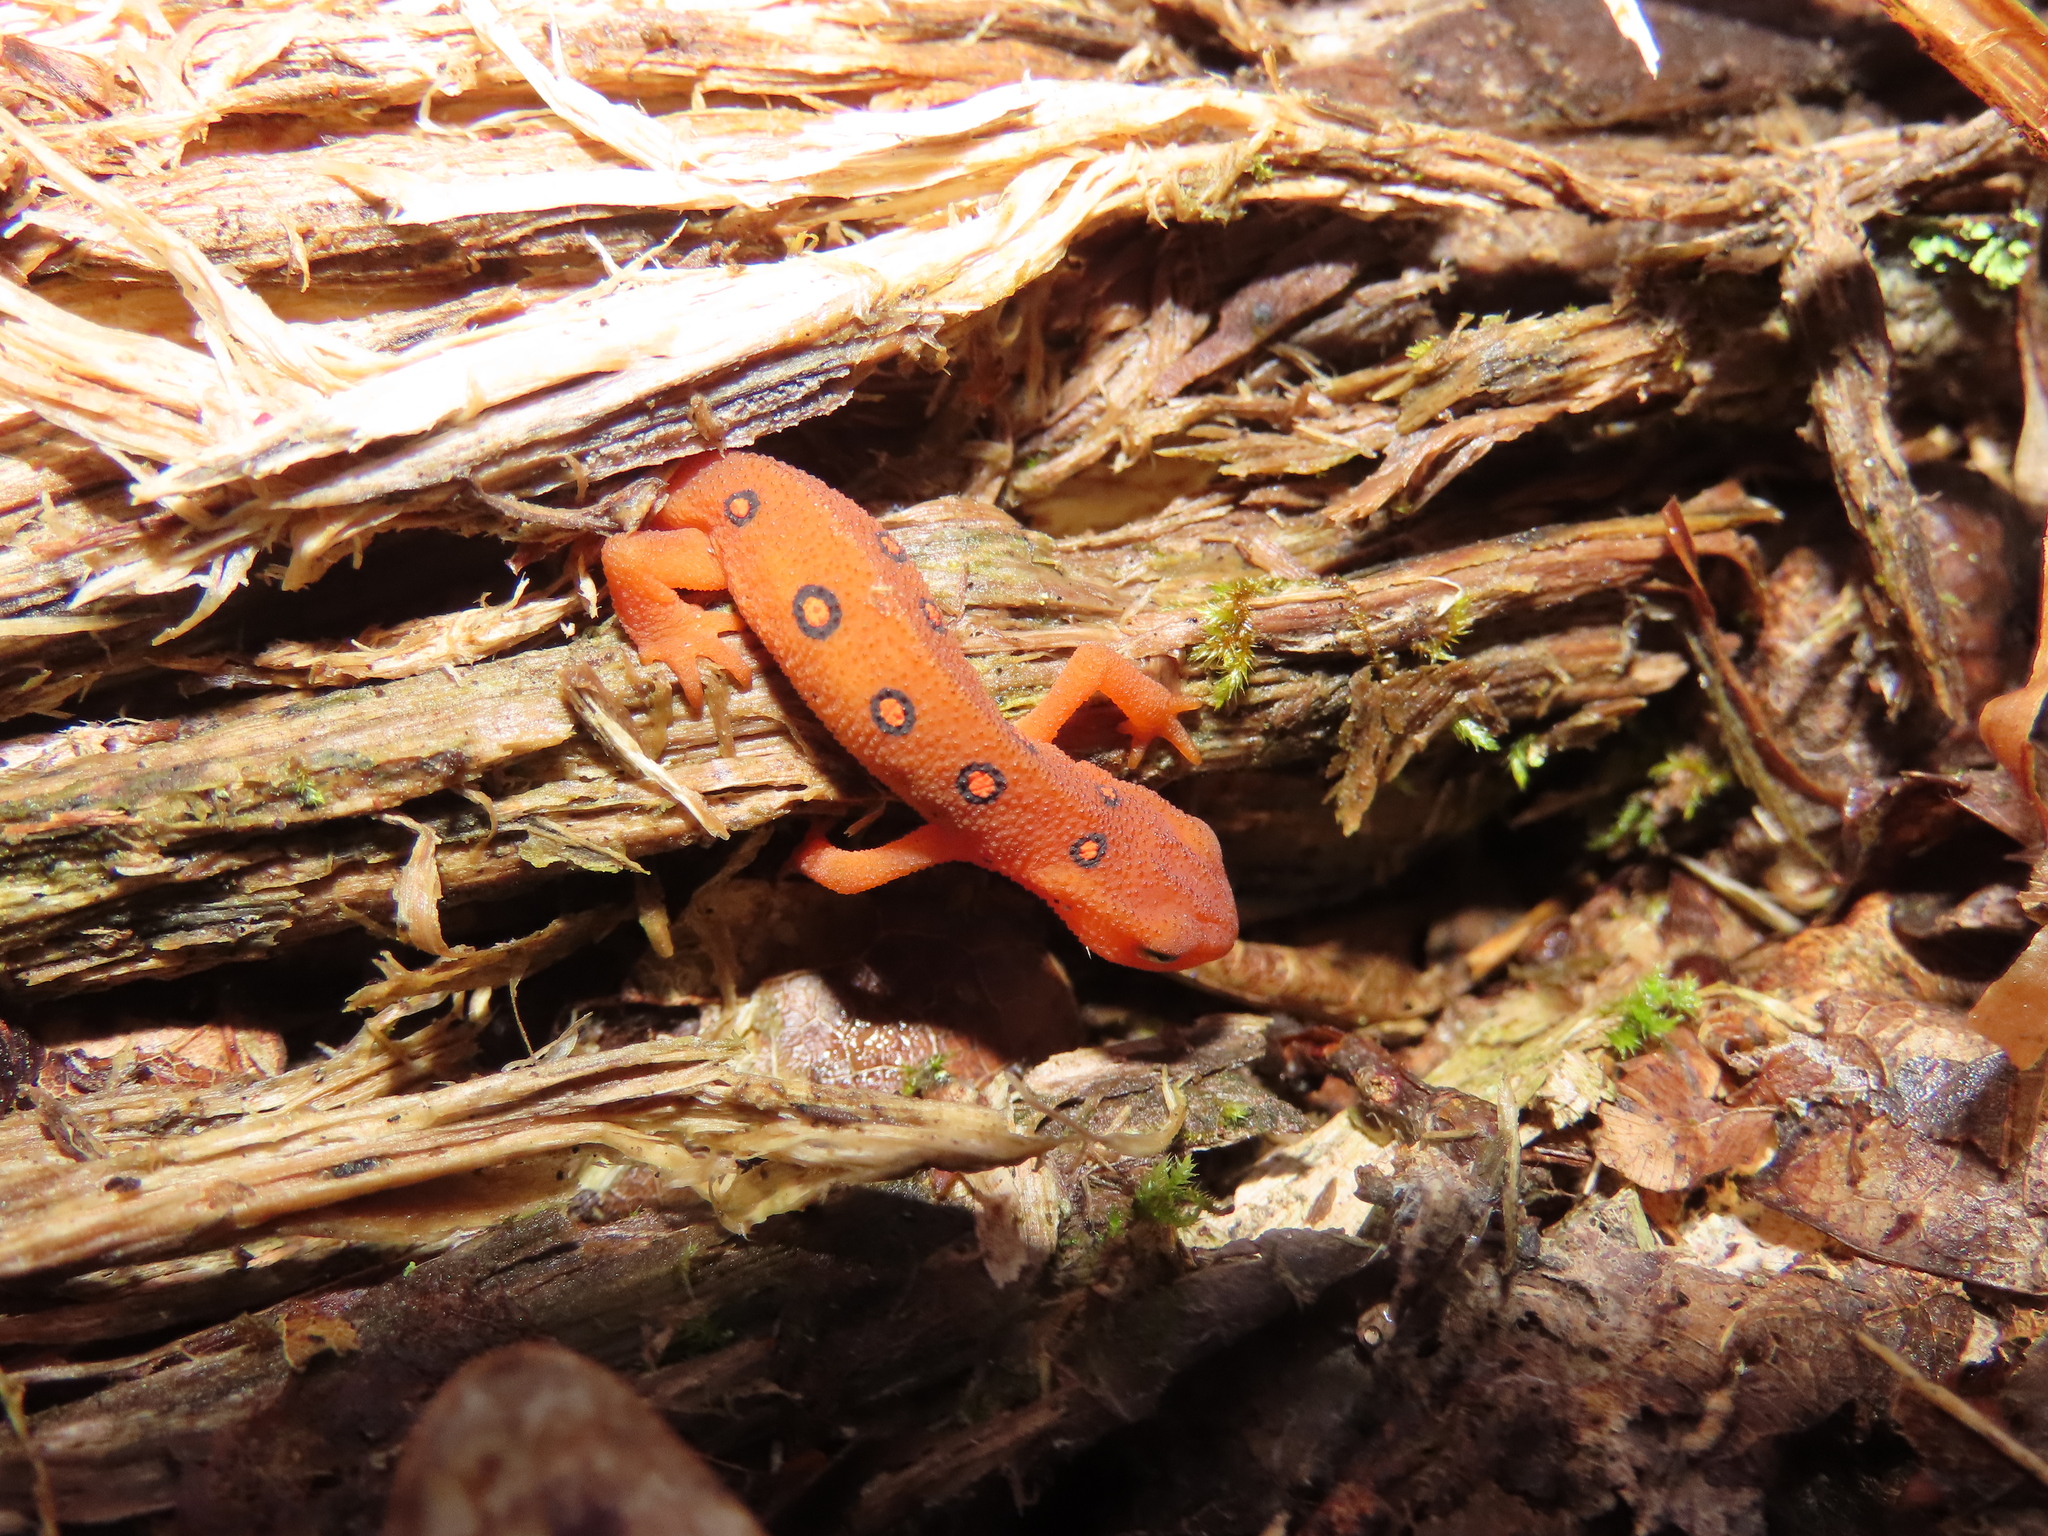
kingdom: Animalia
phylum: Chordata
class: Amphibia
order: Caudata
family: Salamandridae
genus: Notophthalmus
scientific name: Notophthalmus viridescens
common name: Eastern newt
